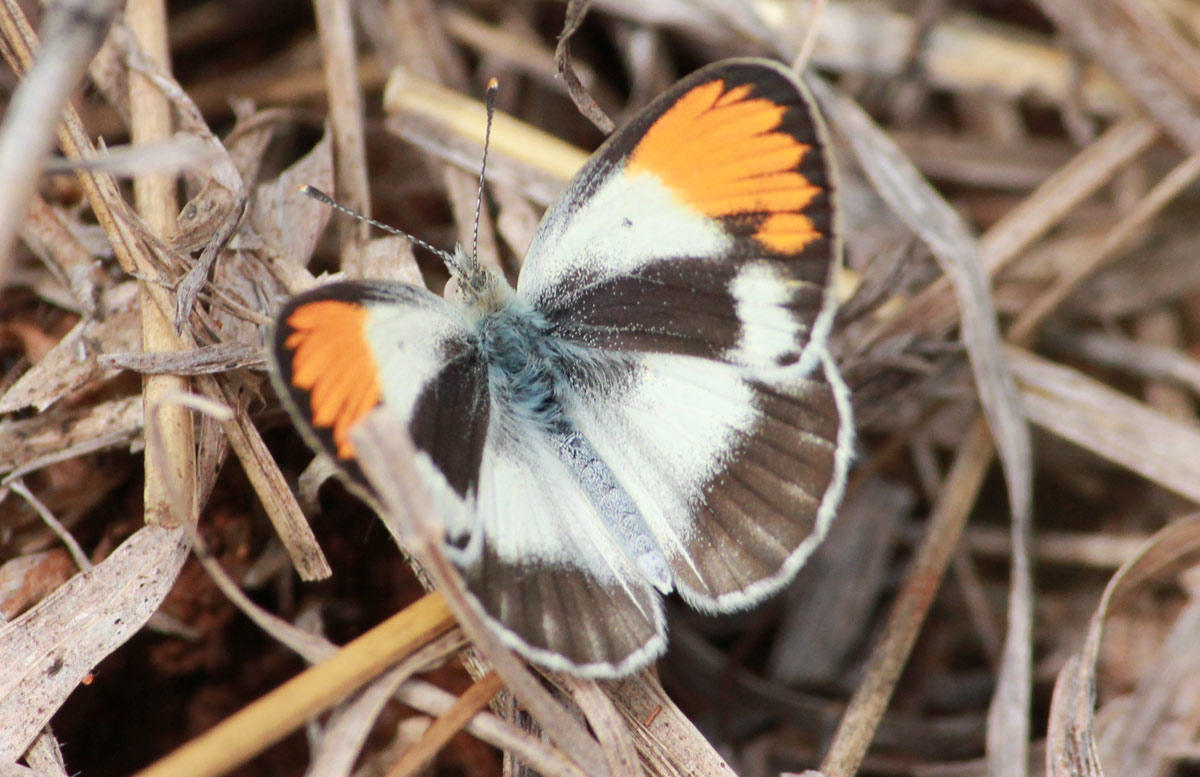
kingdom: Animalia
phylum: Arthropoda
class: Insecta
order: Lepidoptera
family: Pieridae
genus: Colotis
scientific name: Colotis evagore
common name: Desert orange-tip
